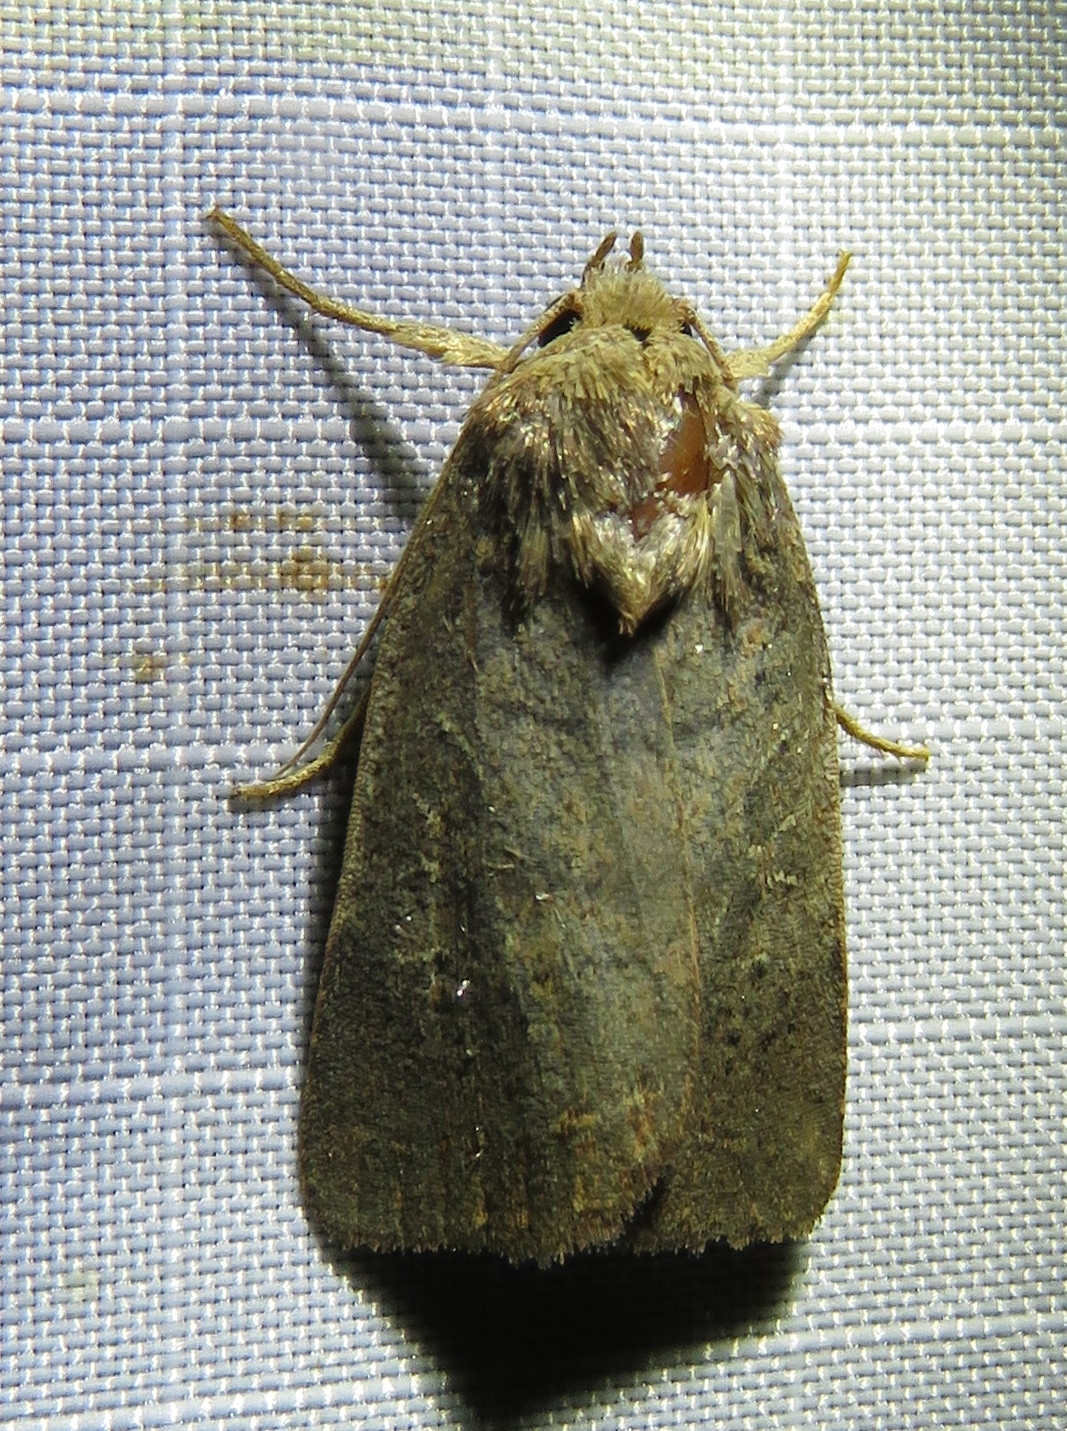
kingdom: Animalia
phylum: Arthropoda
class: Insecta
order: Lepidoptera
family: Noctuidae
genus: Orthodes
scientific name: Orthodes majuscula
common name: Rustic quaker
